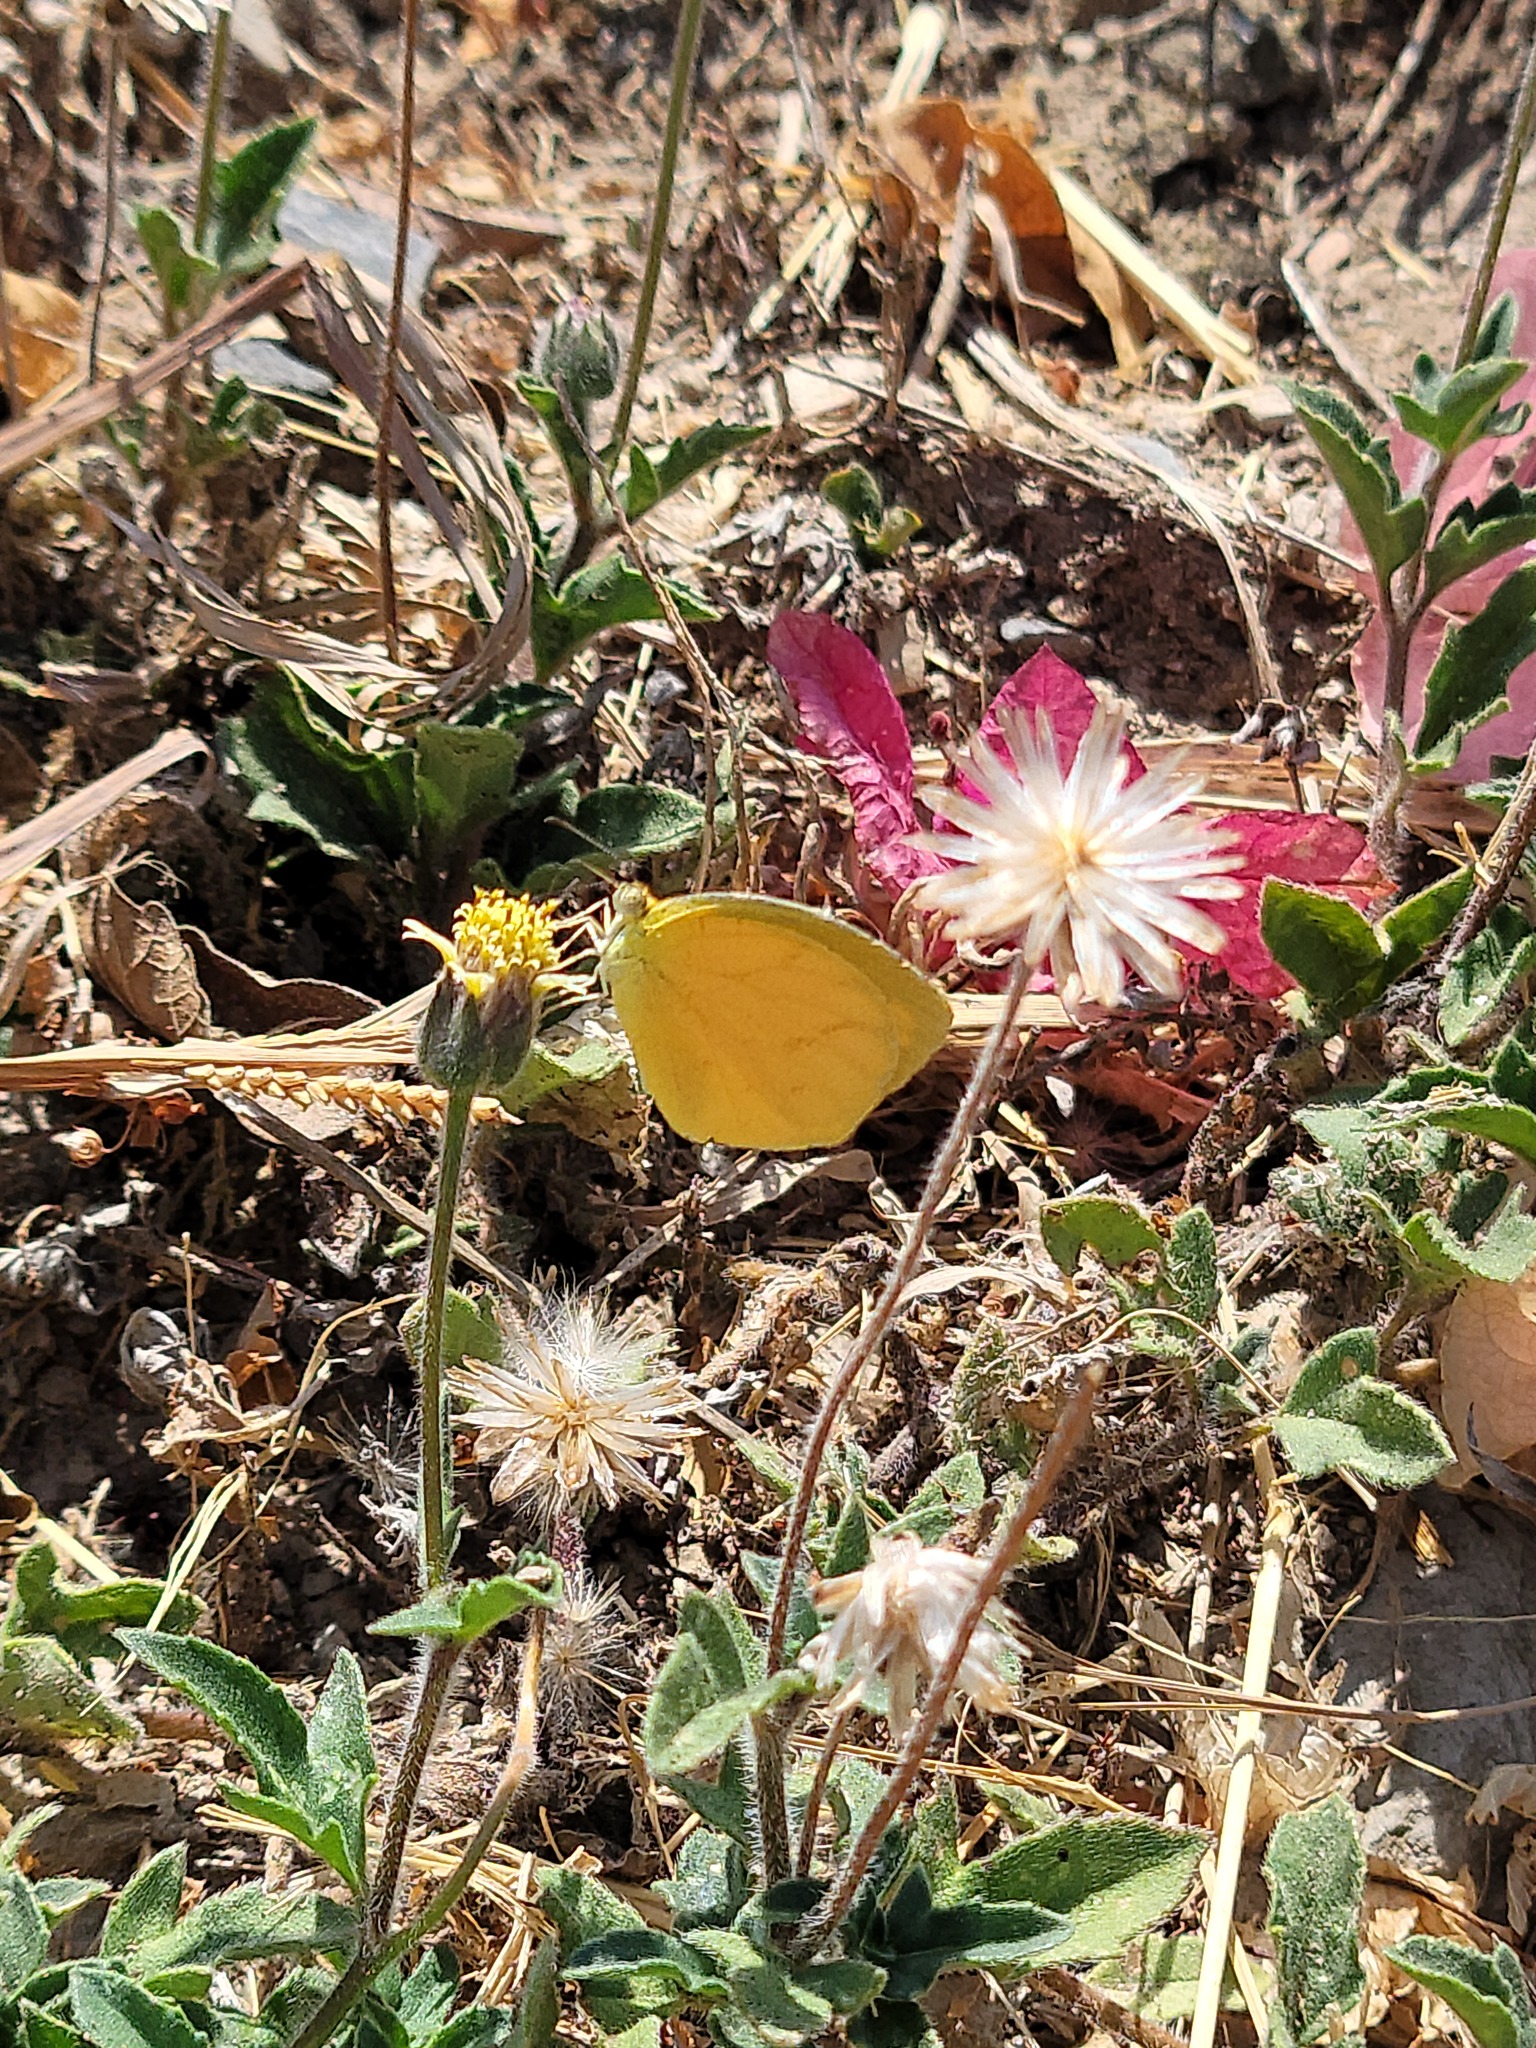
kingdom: Animalia
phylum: Arthropoda
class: Insecta
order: Lepidoptera
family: Pieridae
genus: Pyrisitia
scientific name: Pyrisitia proterpia
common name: Tailed orange
